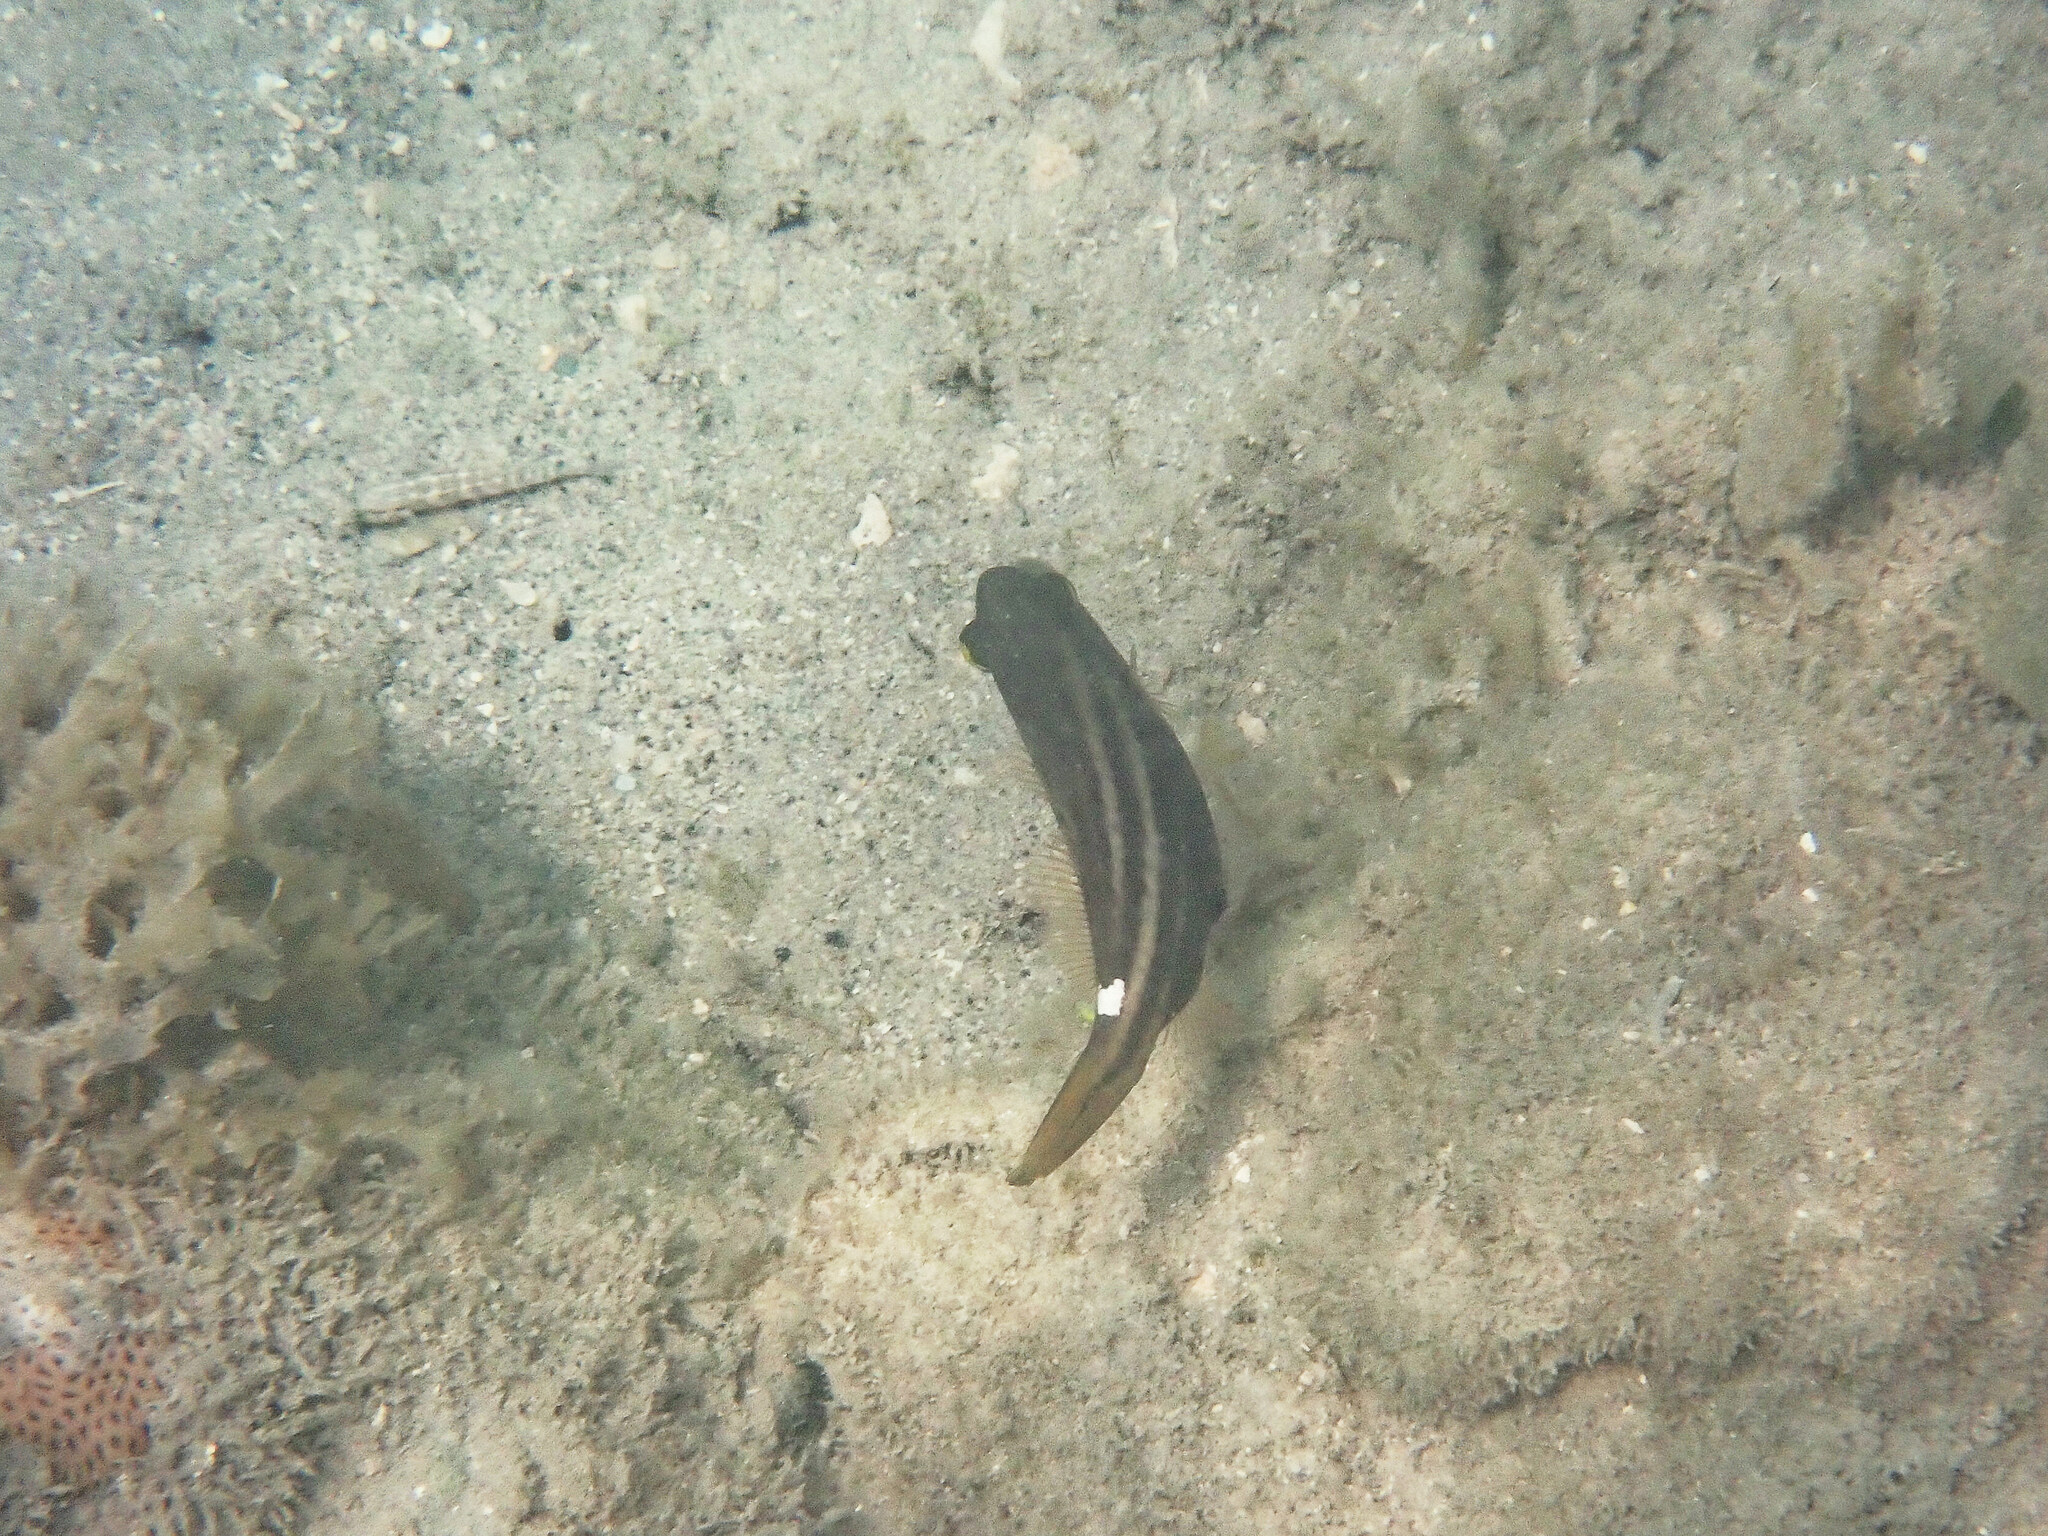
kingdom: Animalia
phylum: Chordata
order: Tetraodontiformes
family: Monacanthidae
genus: Cantherhines
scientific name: Cantherhines pullus
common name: Orangespotted filefish
